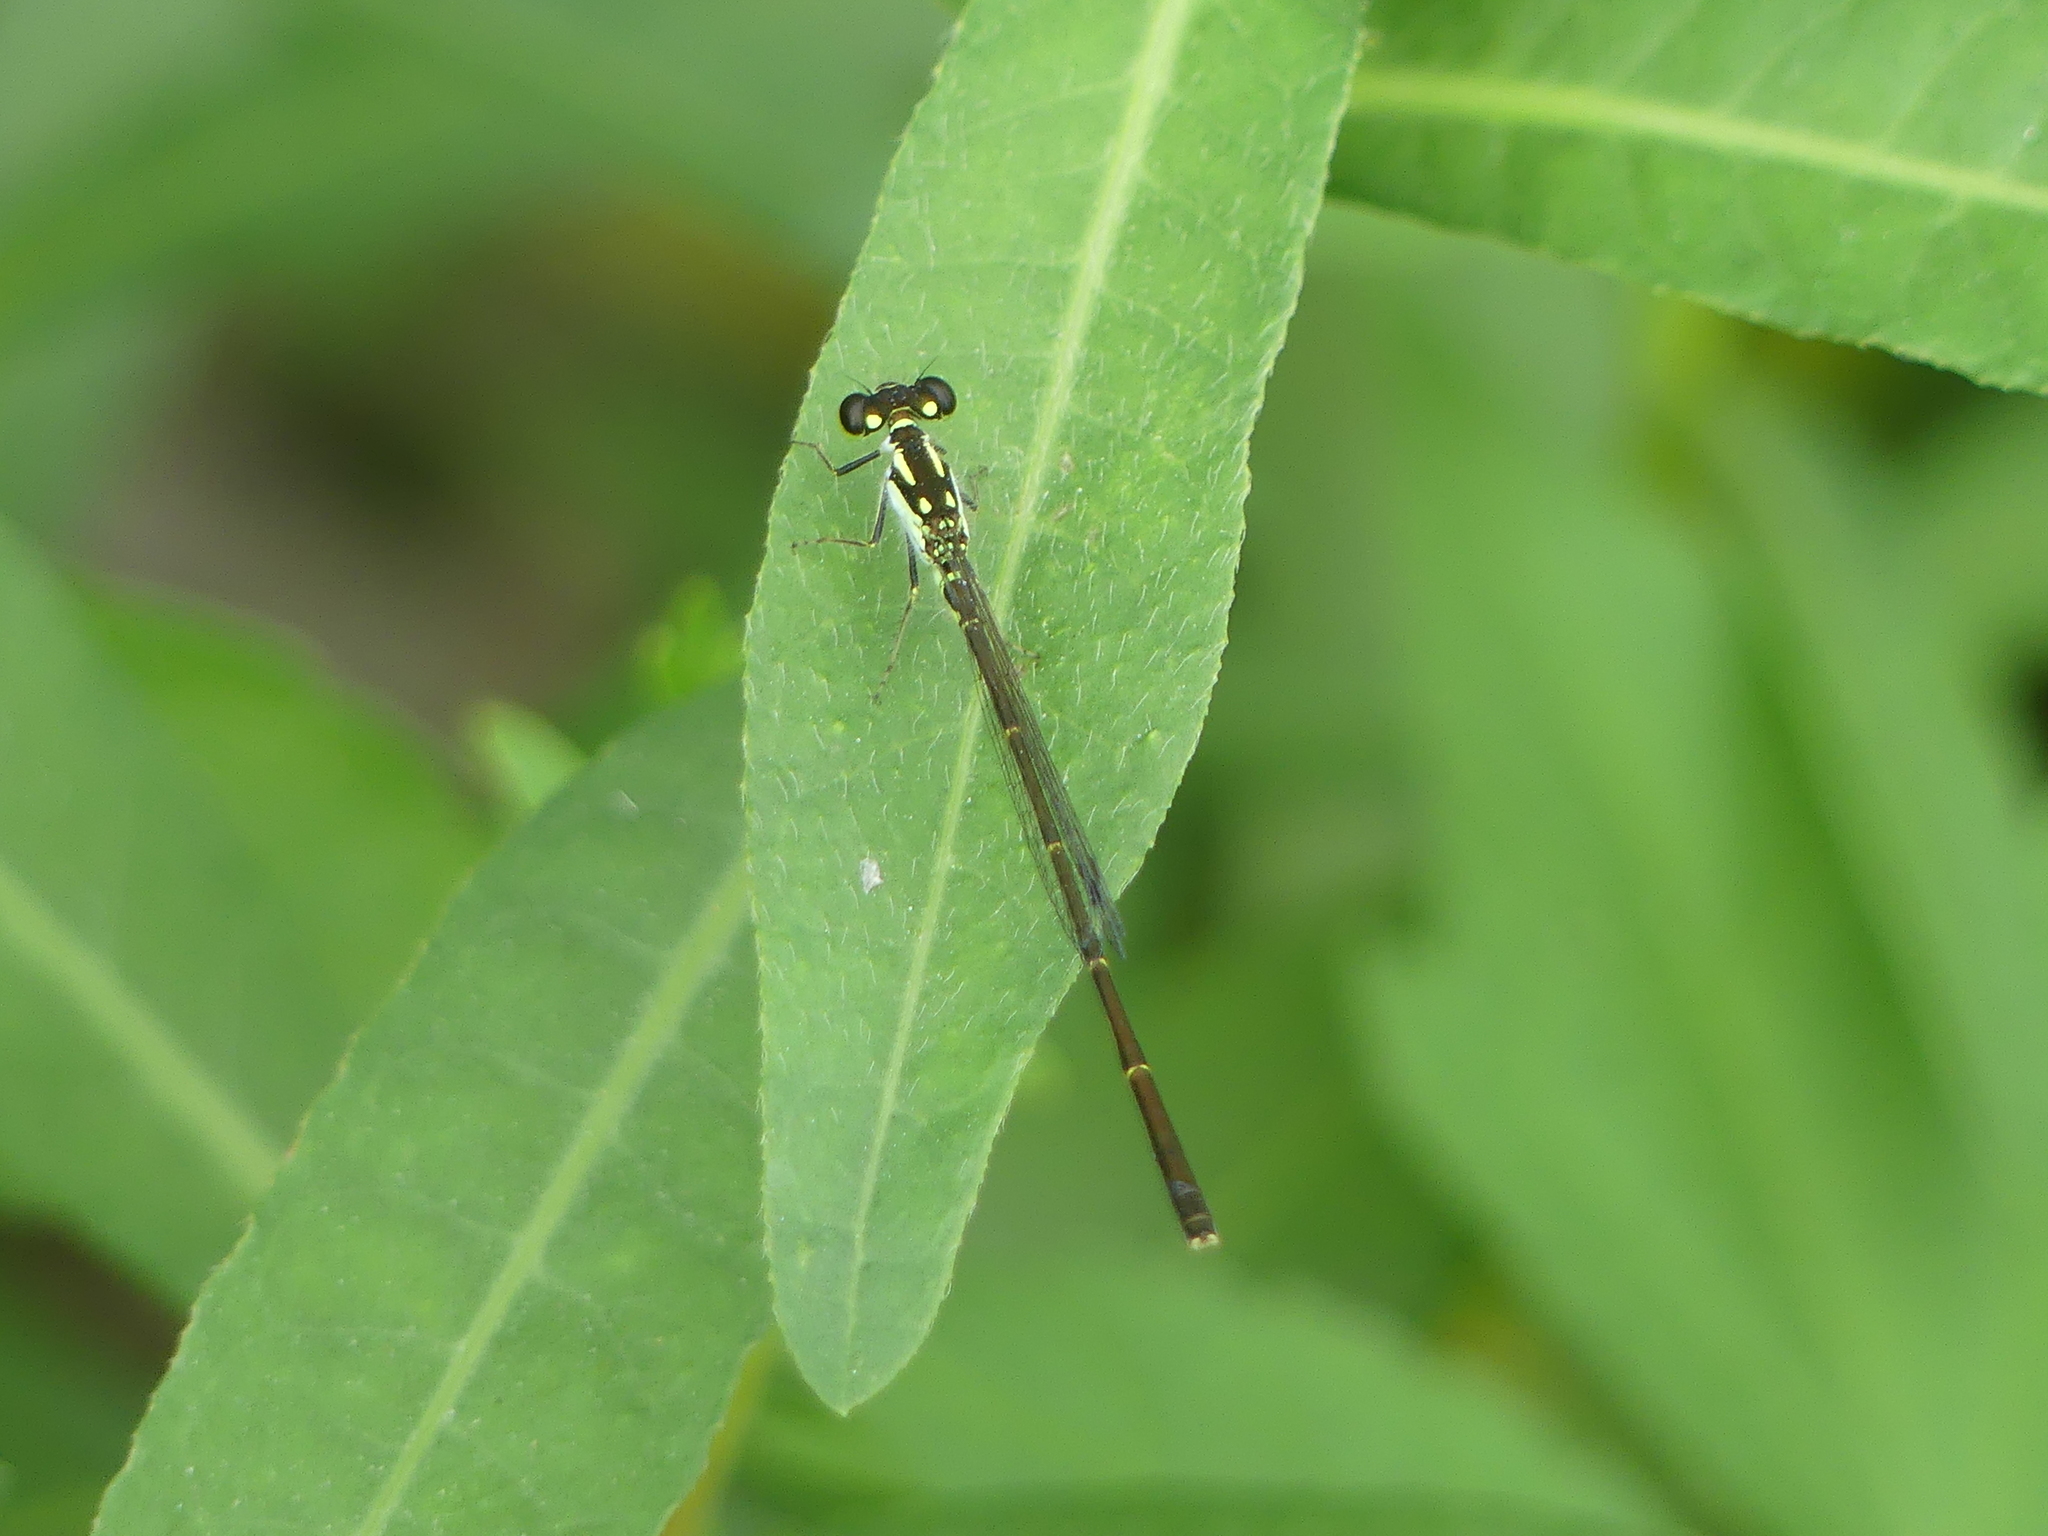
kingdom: Animalia
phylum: Arthropoda
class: Insecta
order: Odonata
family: Coenagrionidae
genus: Ischnura
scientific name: Ischnura posita
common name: Fragile forktail
